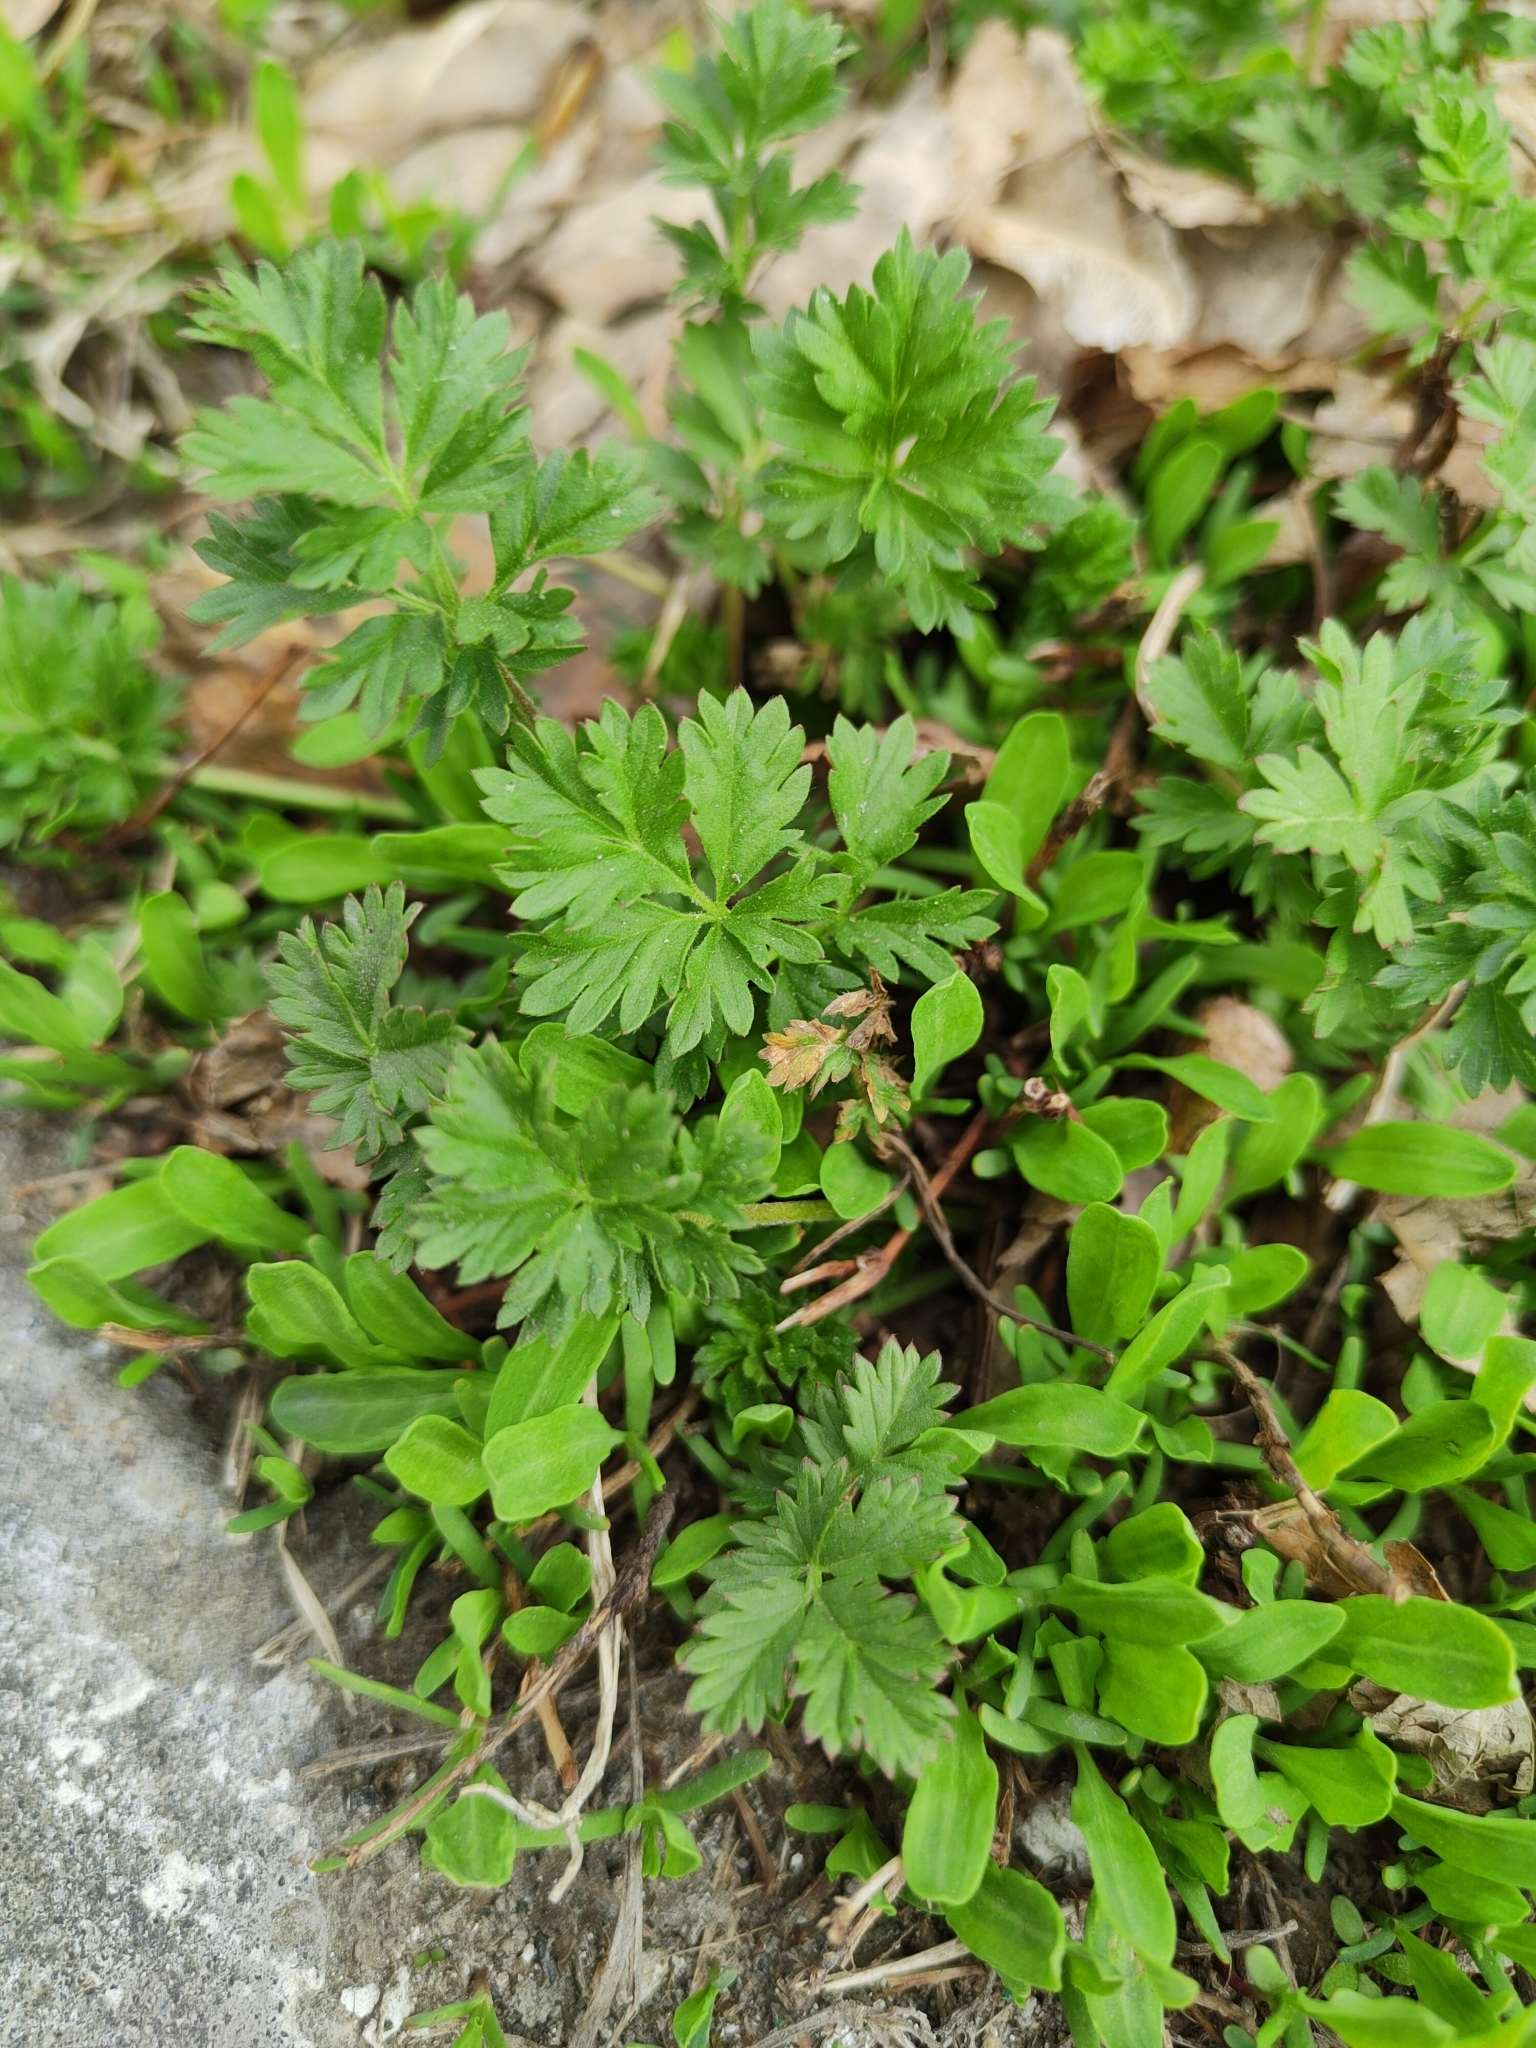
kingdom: Plantae
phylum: Tracheophyta
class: Magnoliopsida
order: Rosales
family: Rosaceae
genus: Potentilla
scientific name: Potentilla tobolensis
